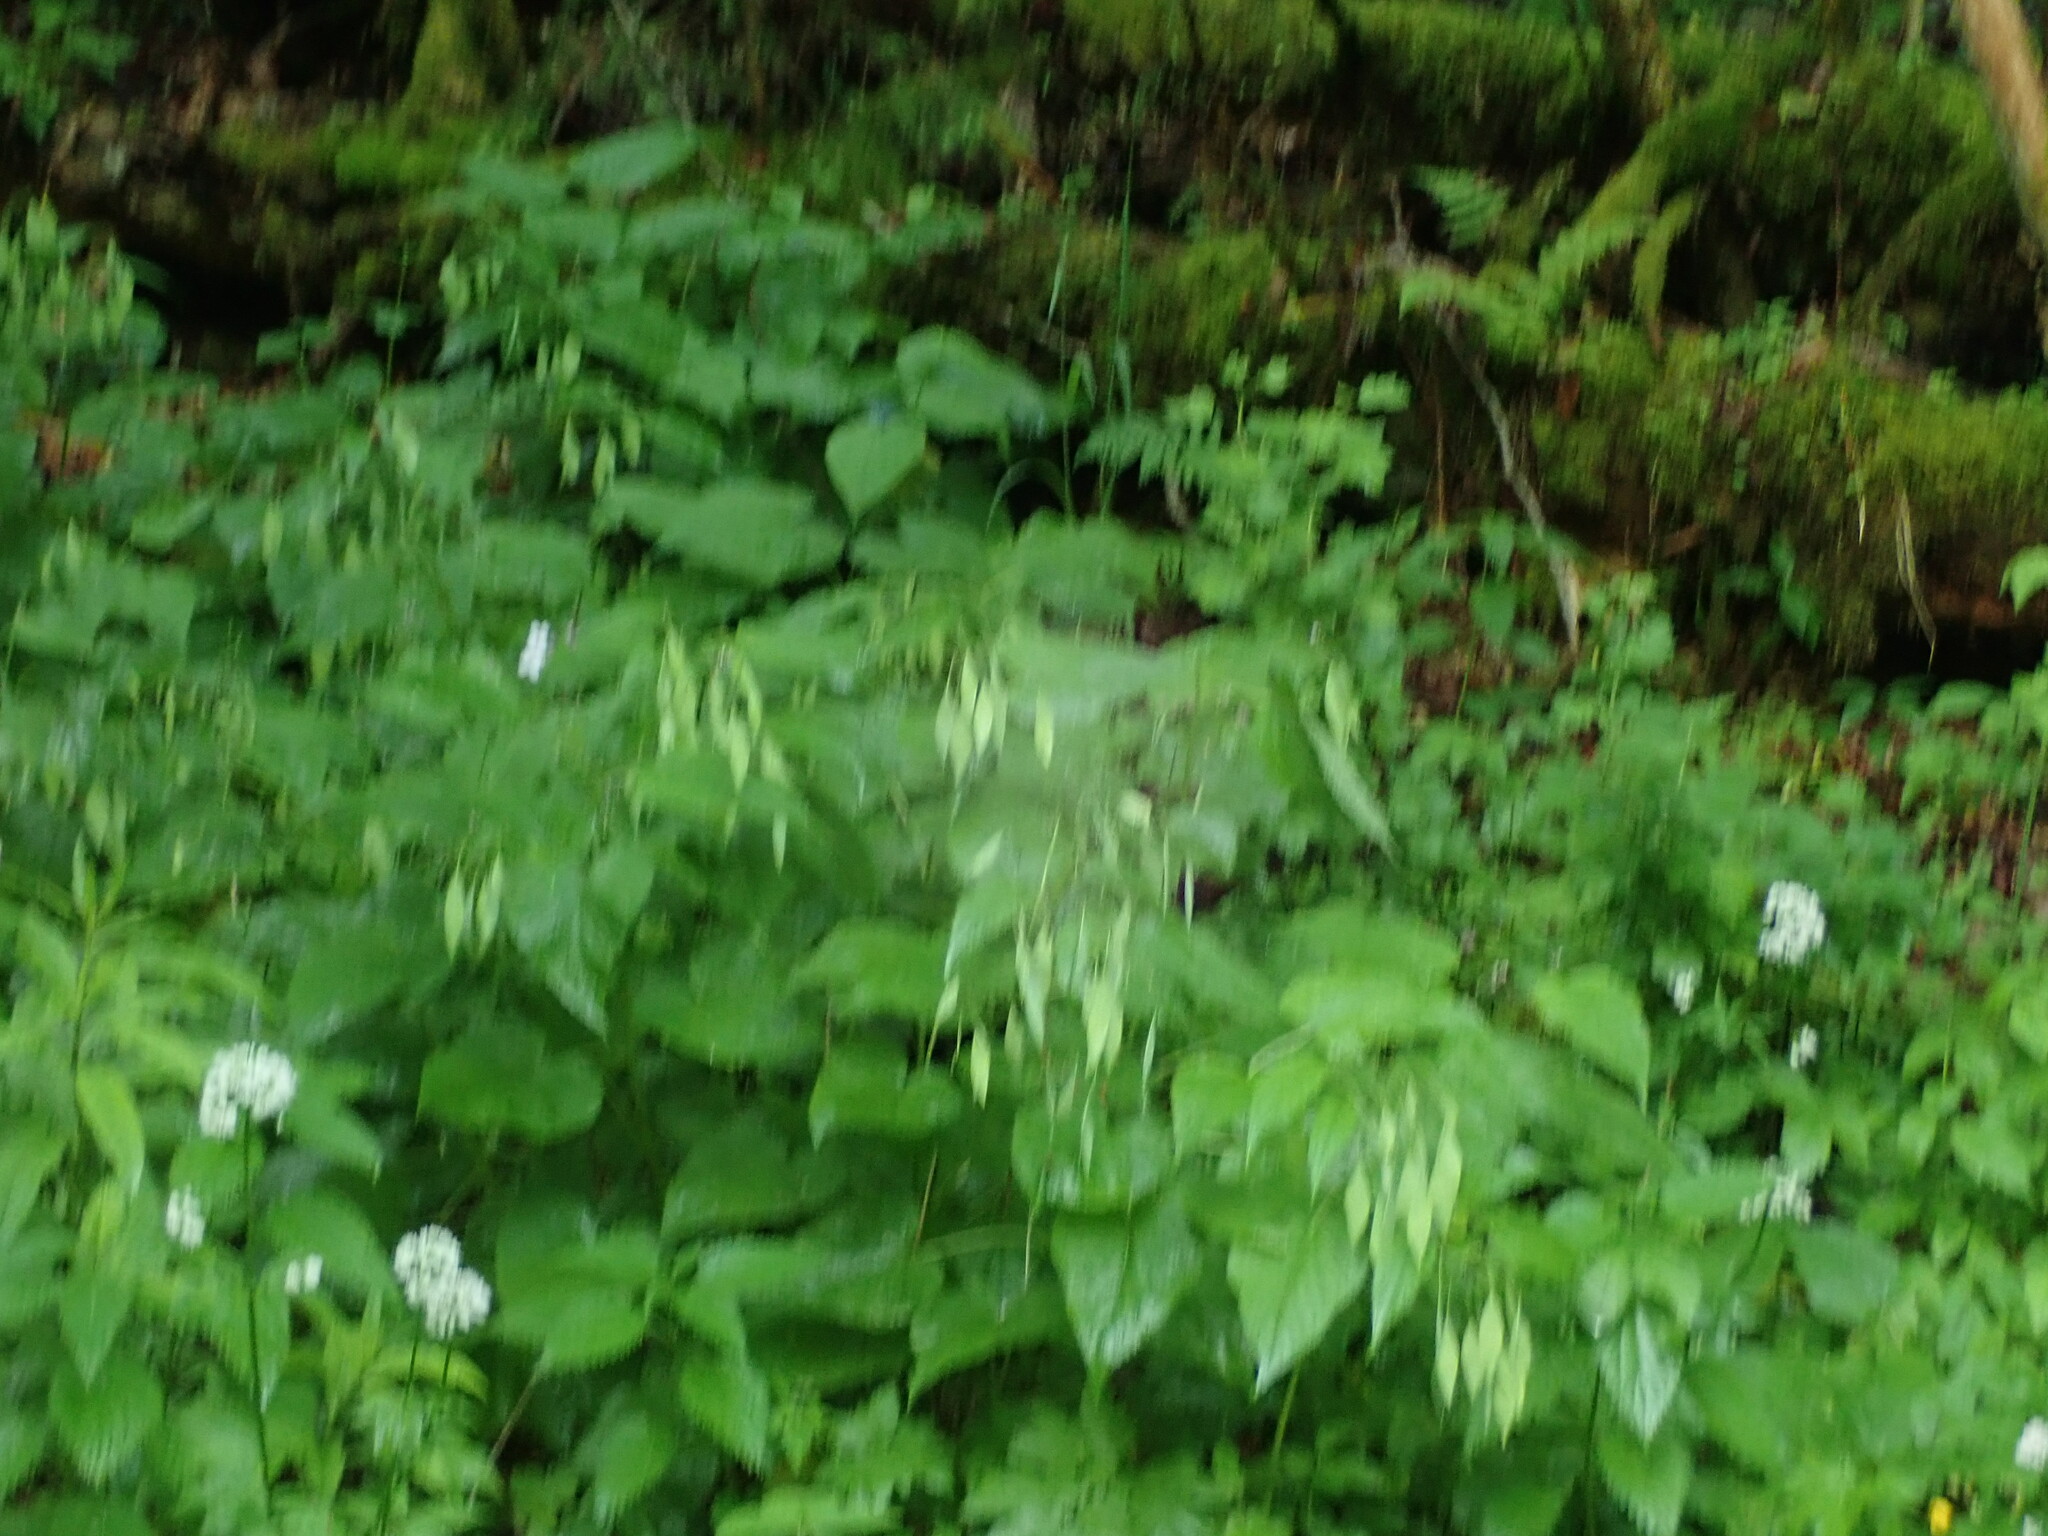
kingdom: Plantae
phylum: Tracheophyta
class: Magnoliopsida
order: Brassicales
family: Brassicaceae
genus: Lunaria
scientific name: Lunaria rediviva
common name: Perennial honesty
